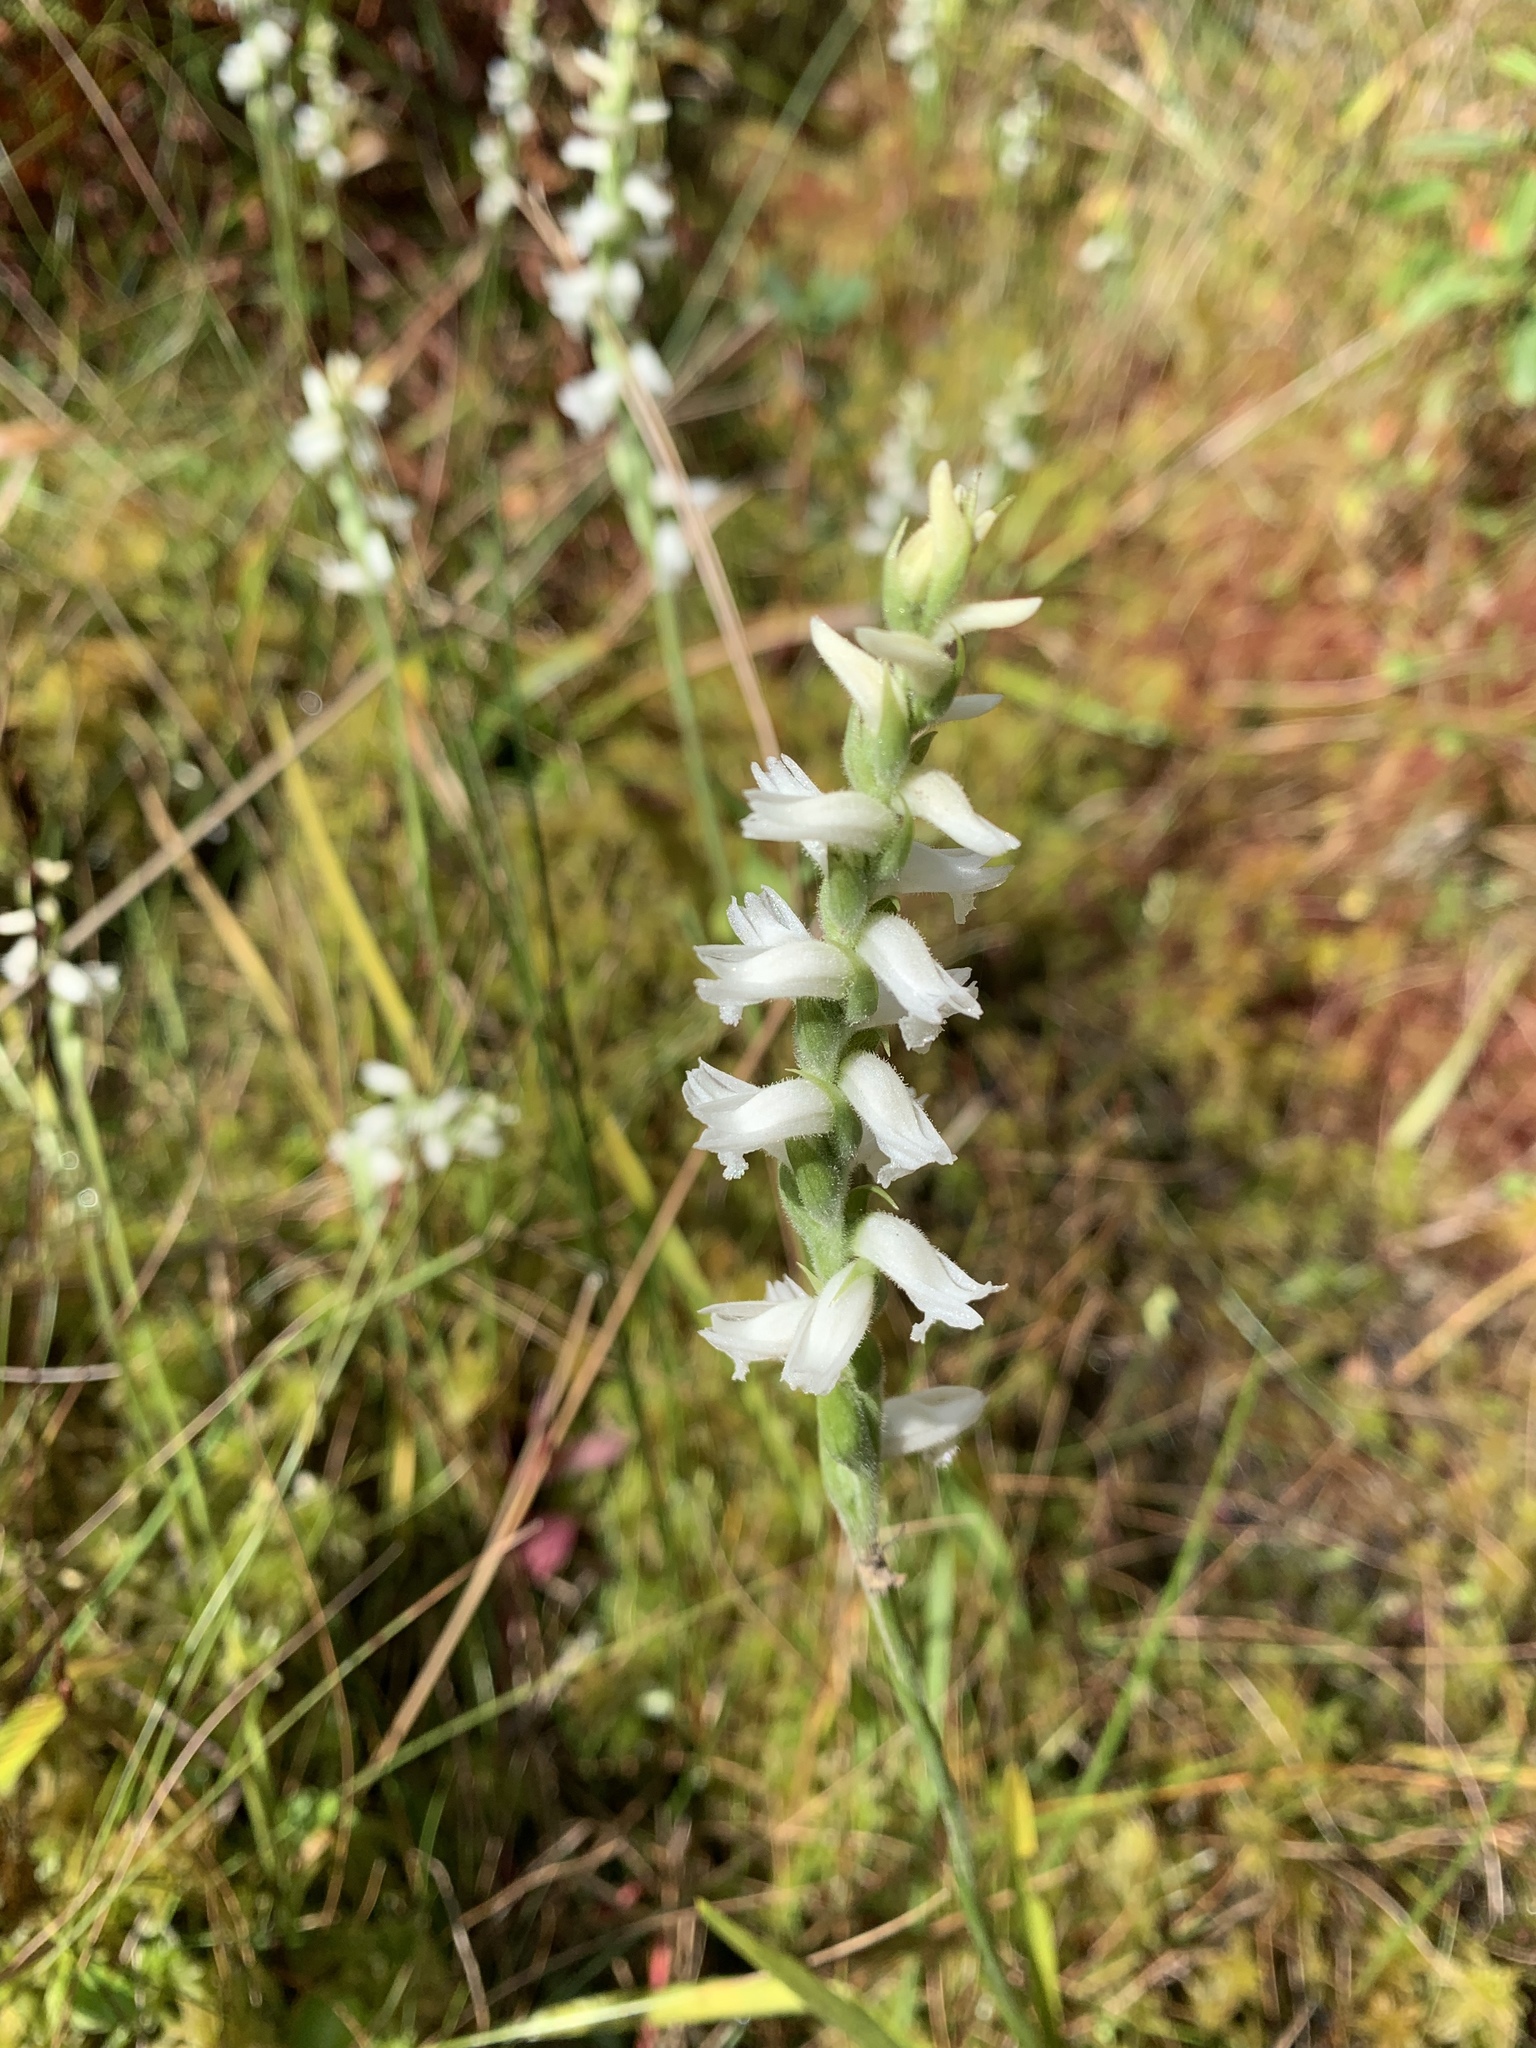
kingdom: Plantae
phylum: Tracheophyta
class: Liliopsida
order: Asparagales
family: Orchidaceae
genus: Spiranthes
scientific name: Spiranthes cernua
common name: Dropping ladies'-tresses
